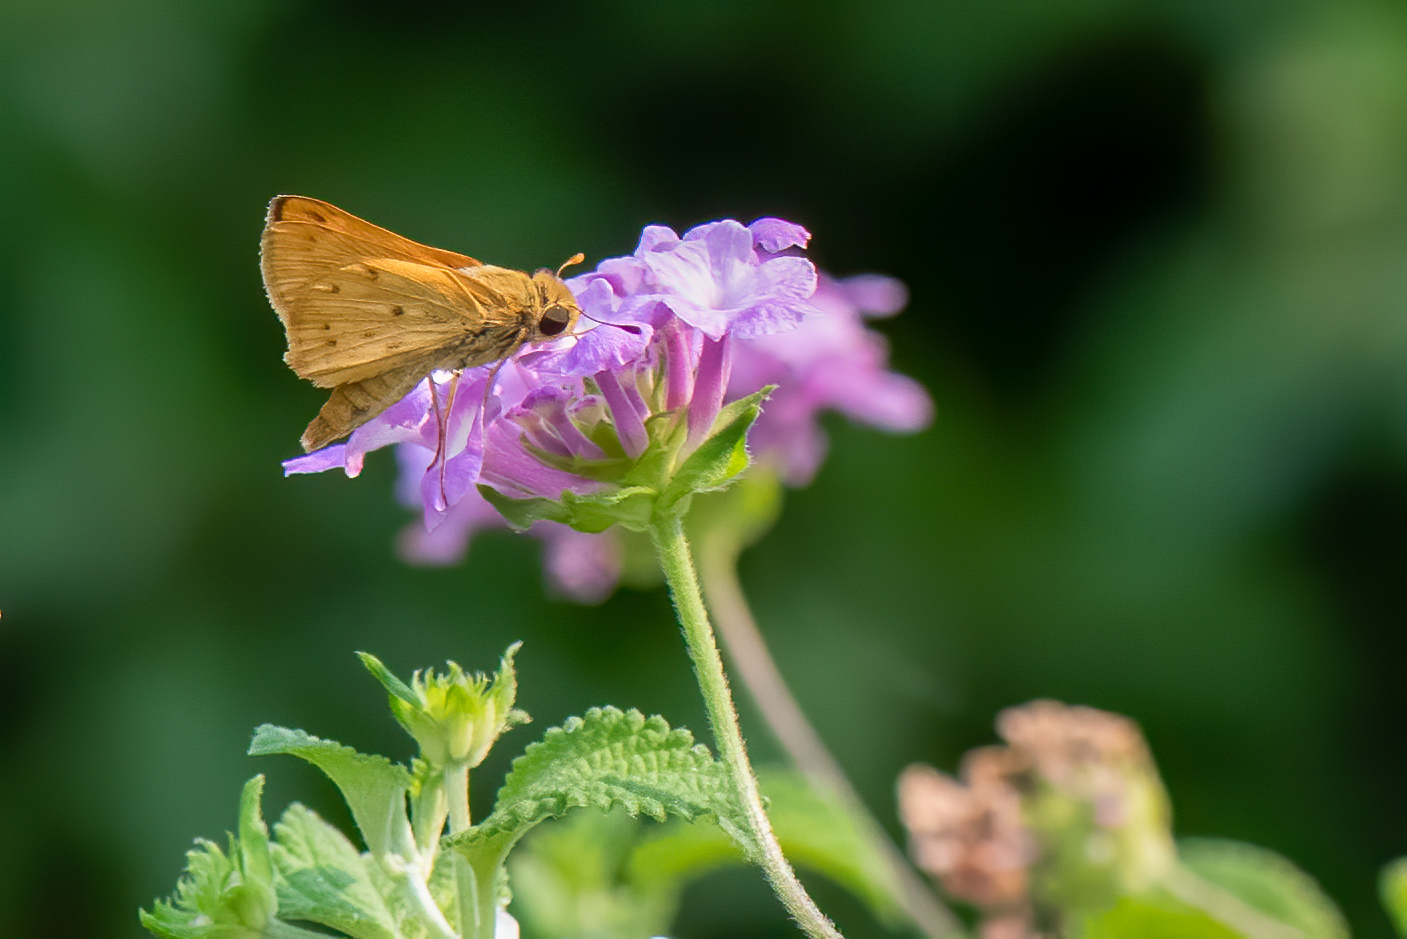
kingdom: Animalia
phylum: Arthropoda
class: Insecta
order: Lepidoptera
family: Hesperiidae
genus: Hylephila
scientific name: Hylephila phyleus
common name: Fiery skipper
